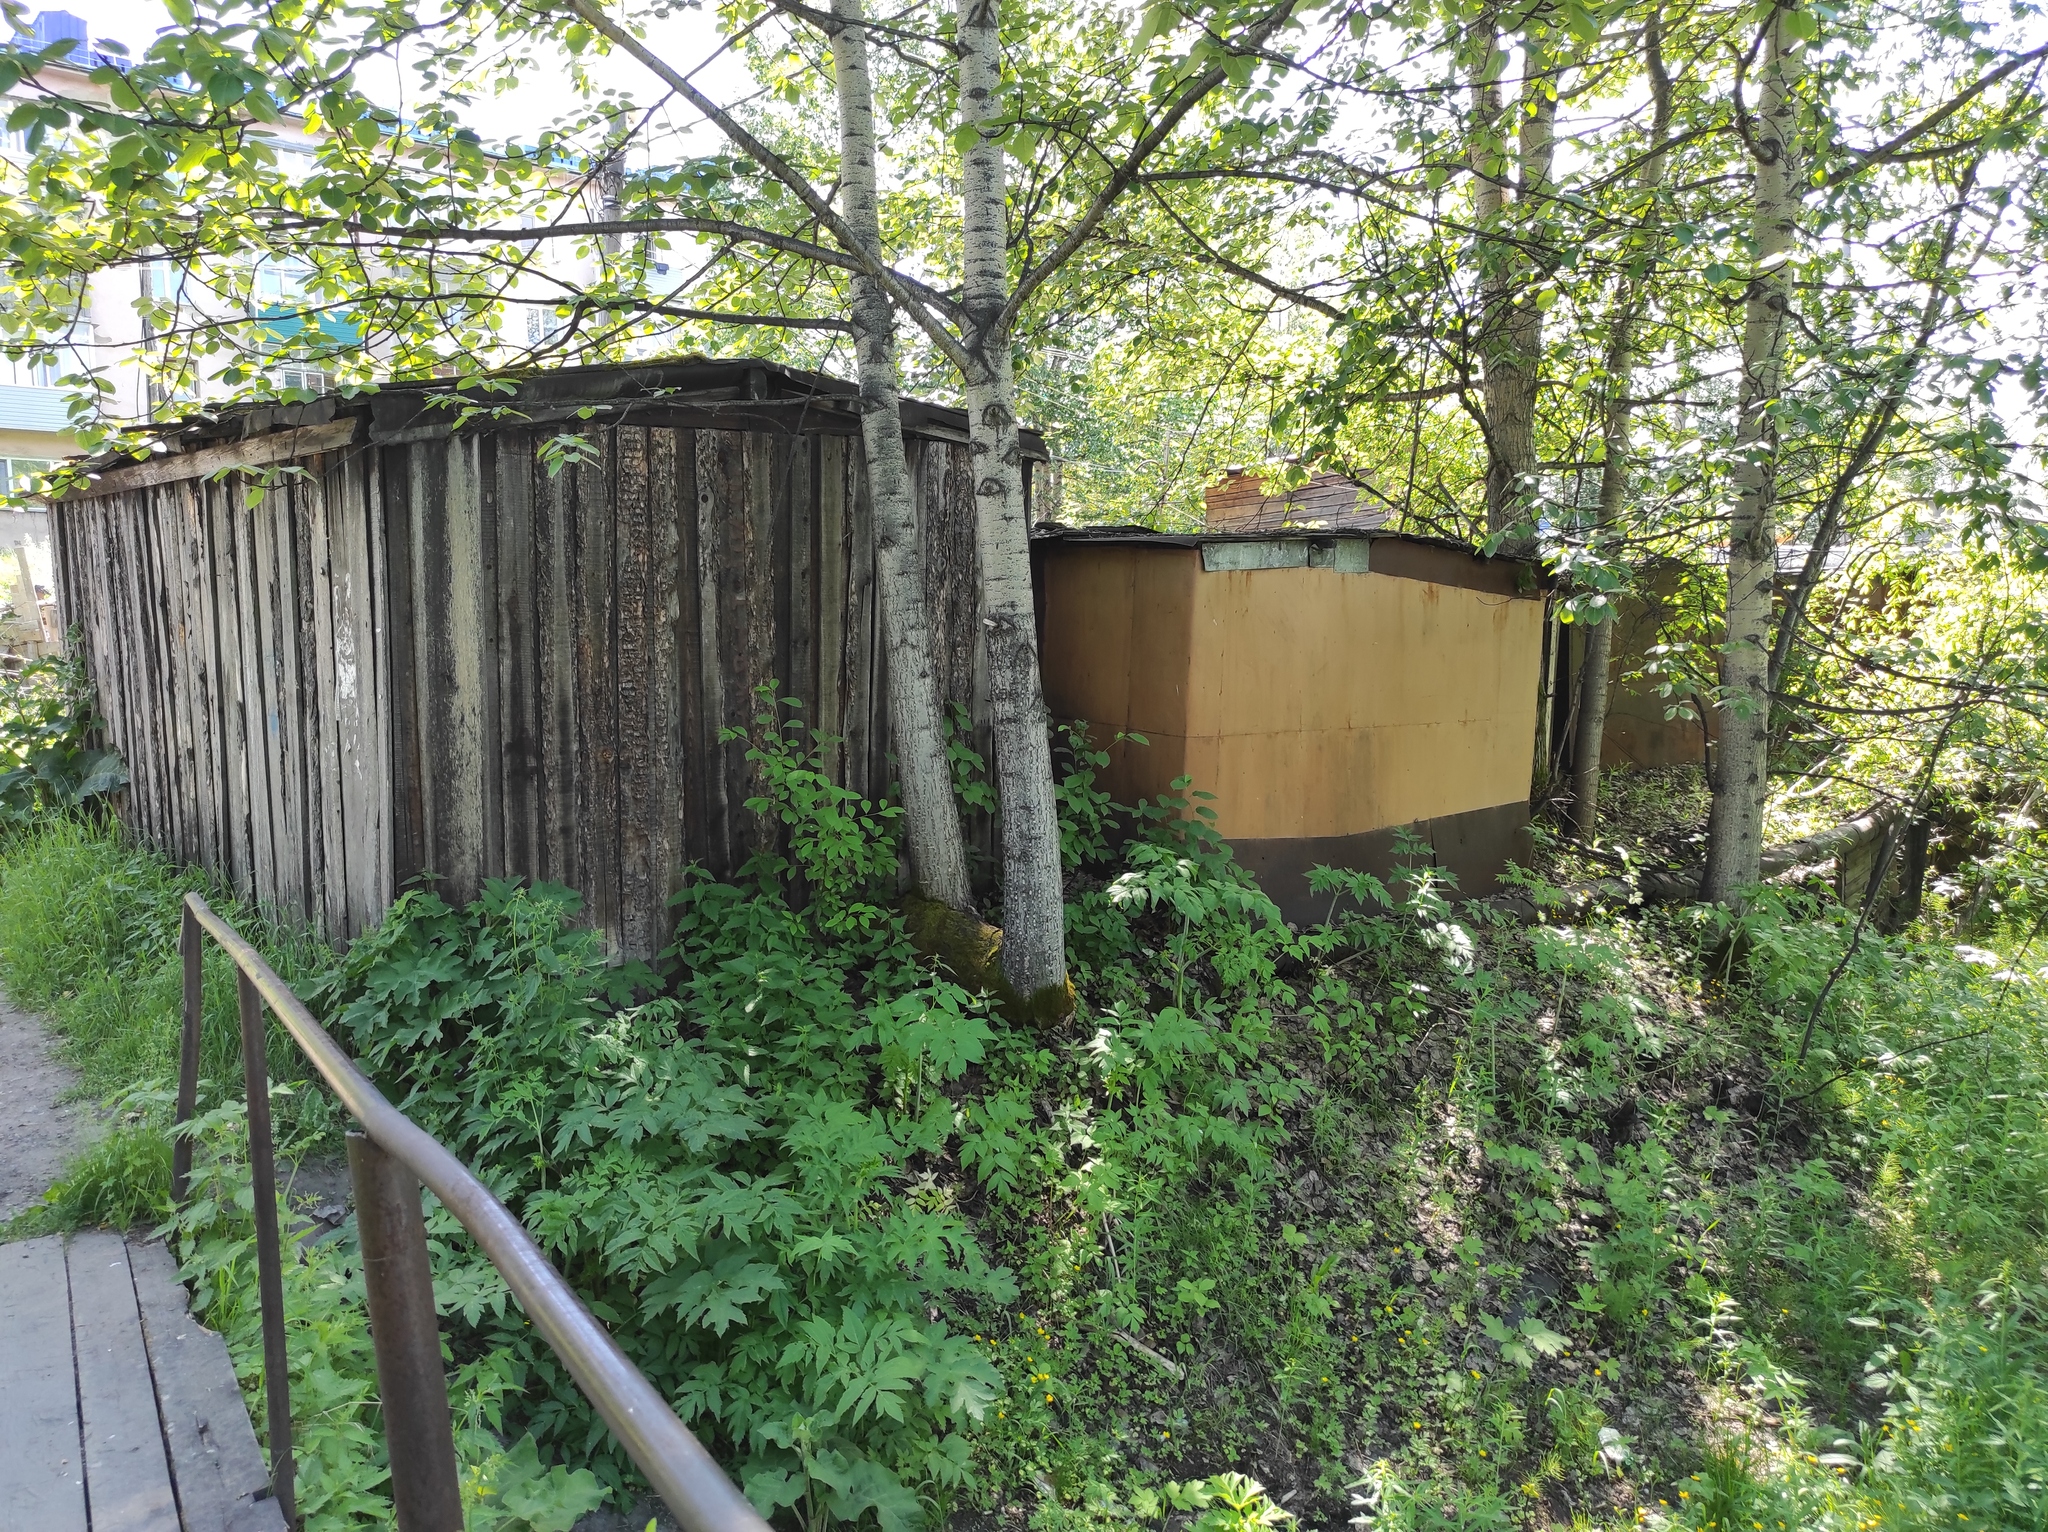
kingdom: Plantae
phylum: Tracheophyta
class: Magnoliopsida
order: Malpighiales
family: Salicaceae
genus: Populus
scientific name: Populus suaveolens
